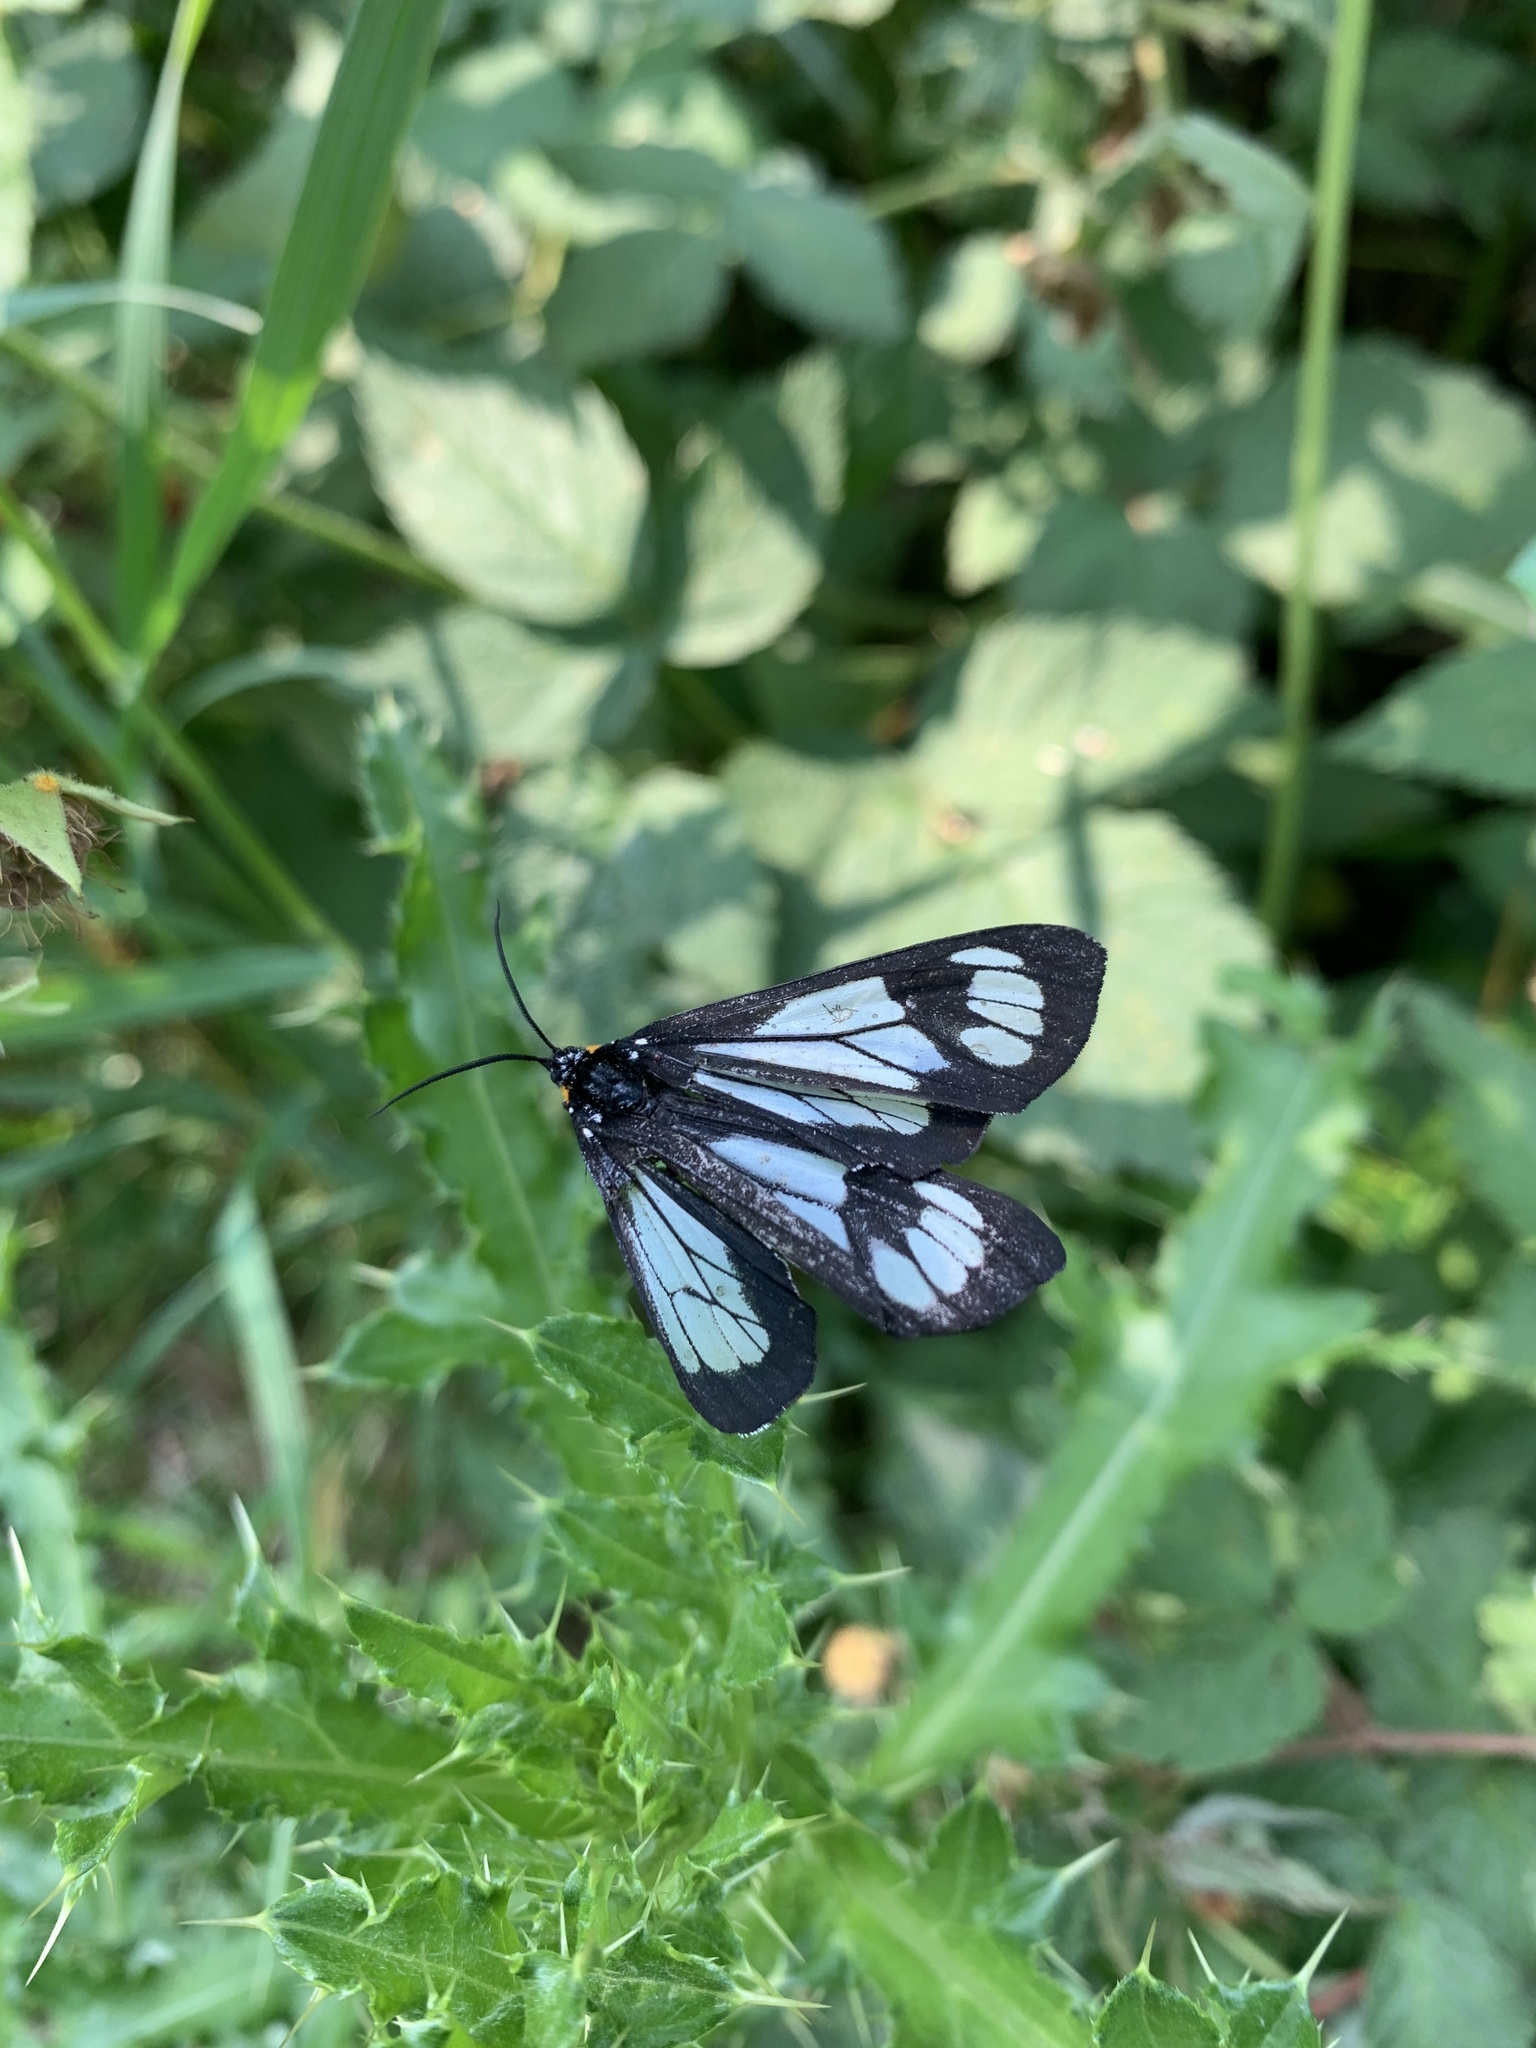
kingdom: Animalia
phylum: Arthropoda
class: Insecta
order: Lepidoptera
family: Erebidae
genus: Gnophaela
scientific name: Gnophaela vermiculata
